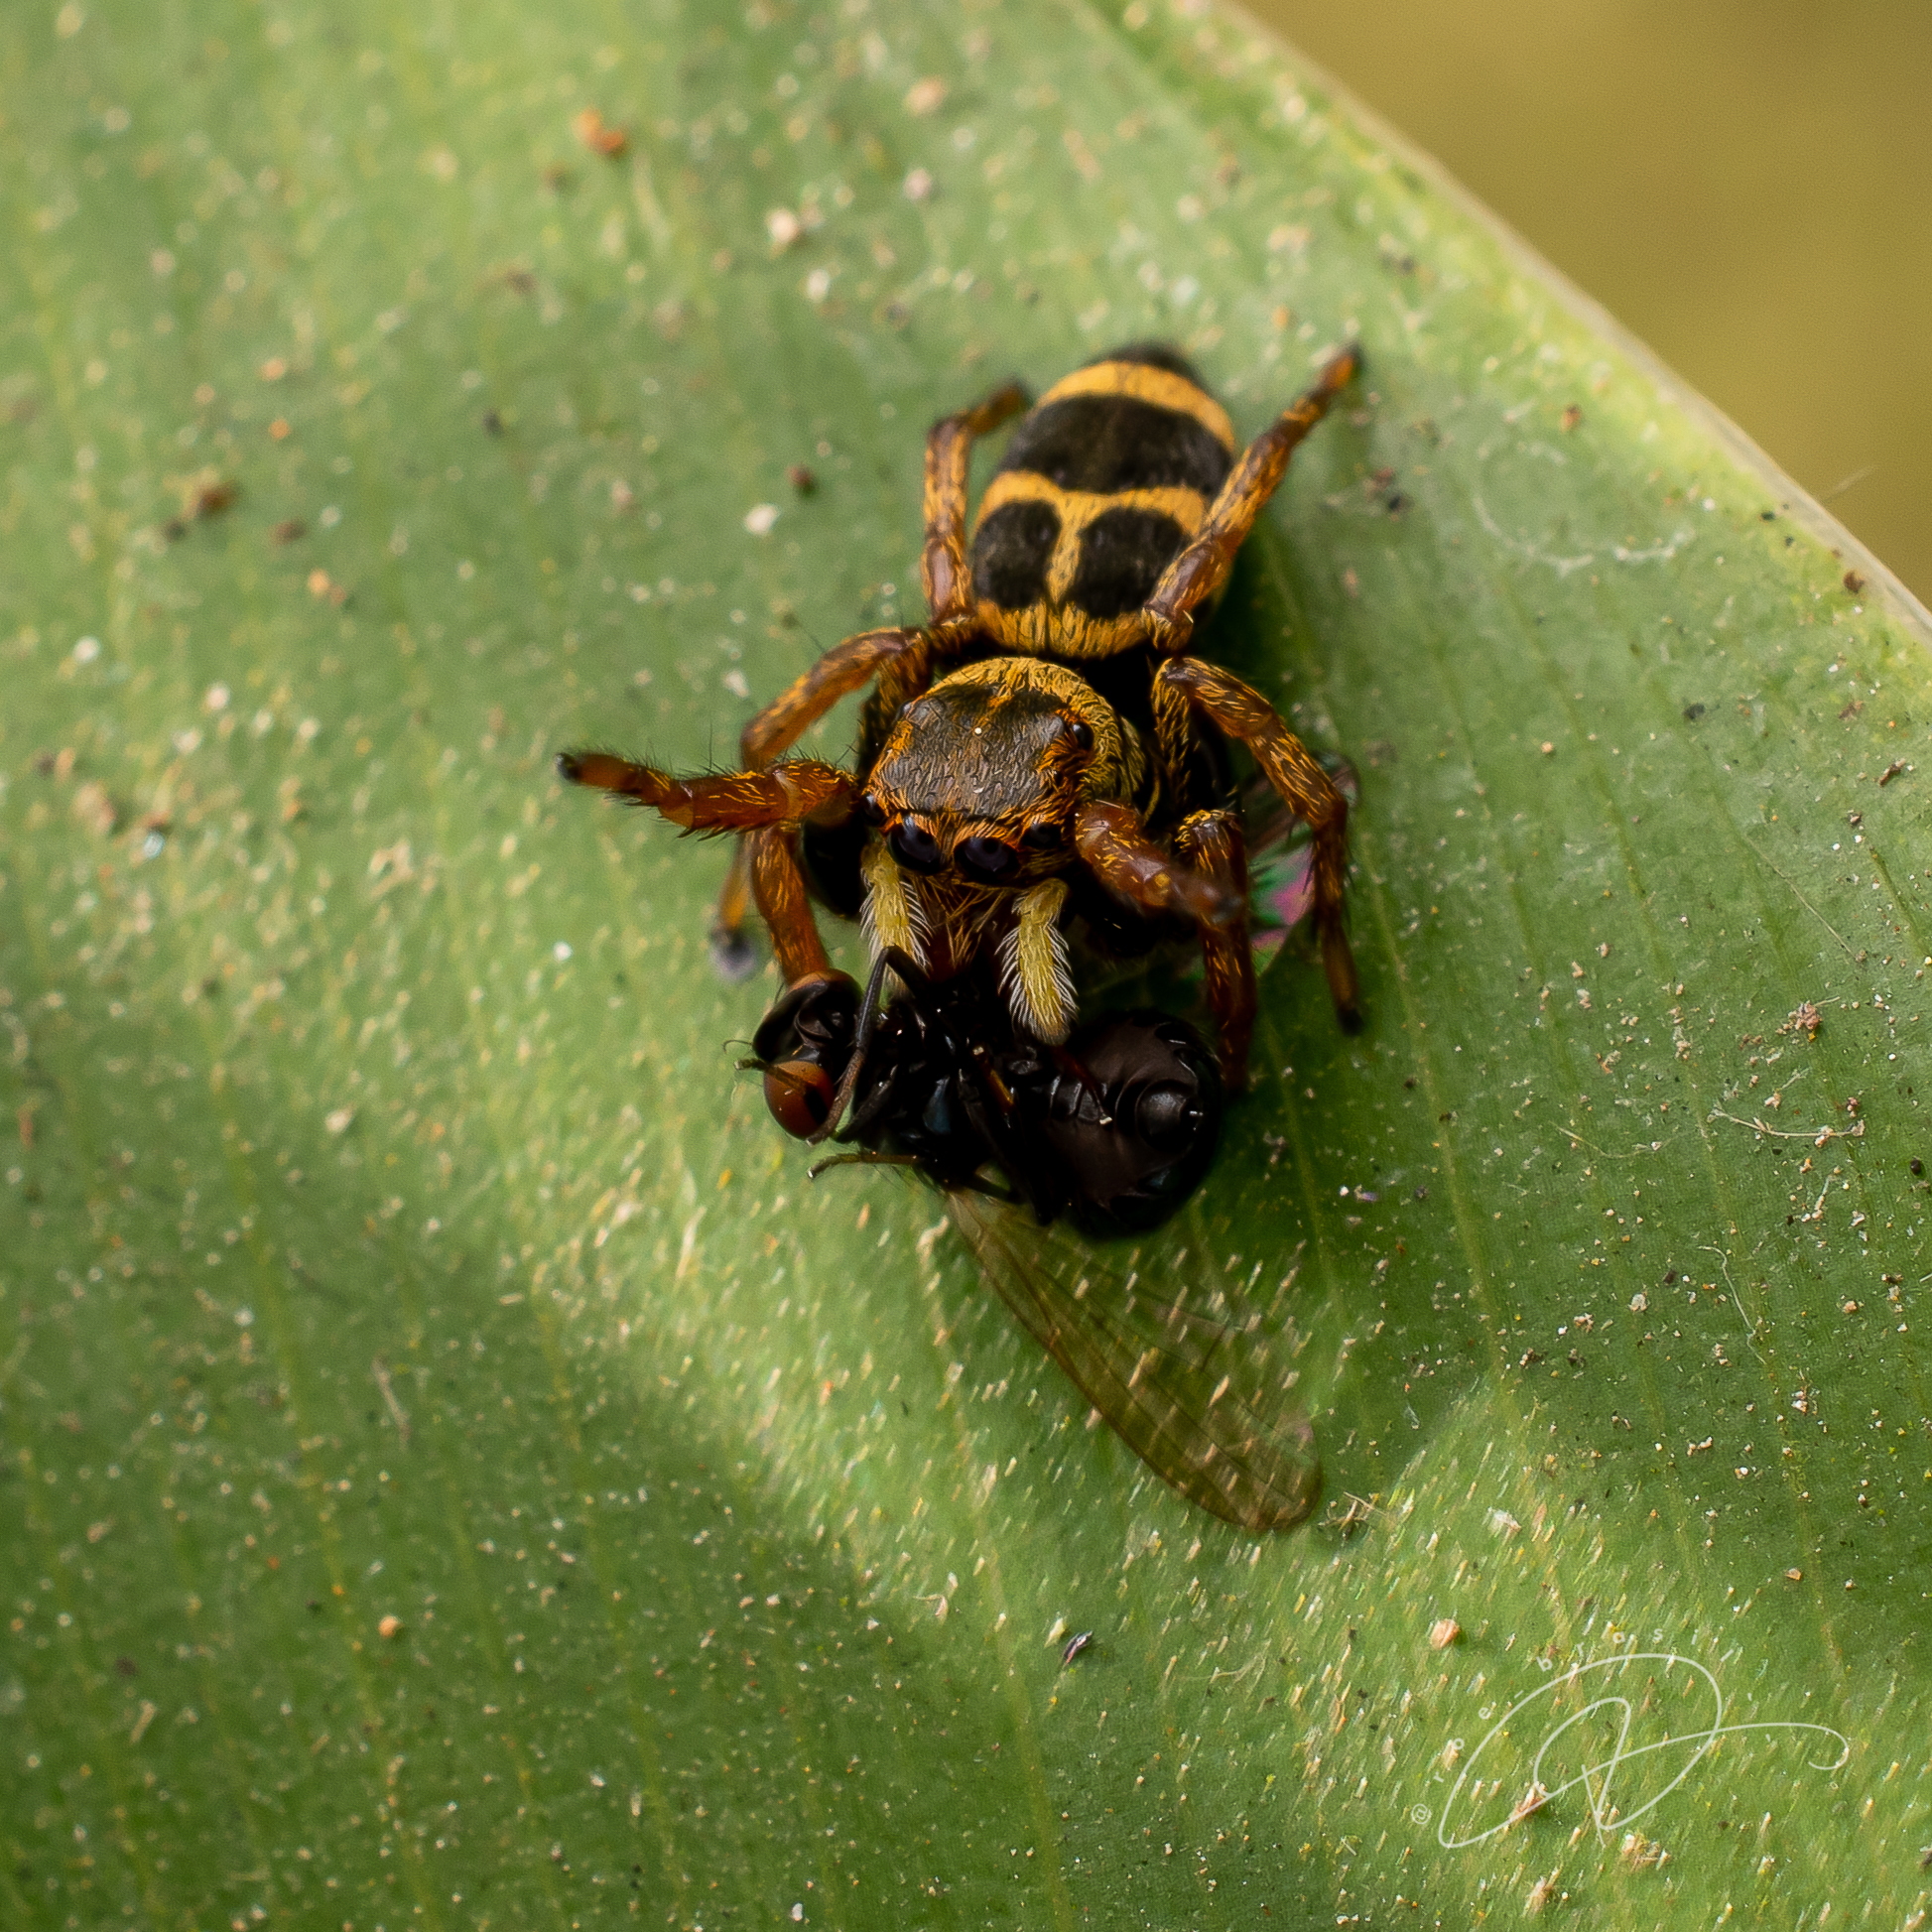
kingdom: Animalia
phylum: Arthropoda
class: Arachnida
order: Araneae
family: Salticidae
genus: Phiale
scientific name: Phiale mimica
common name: Jumping spiders
